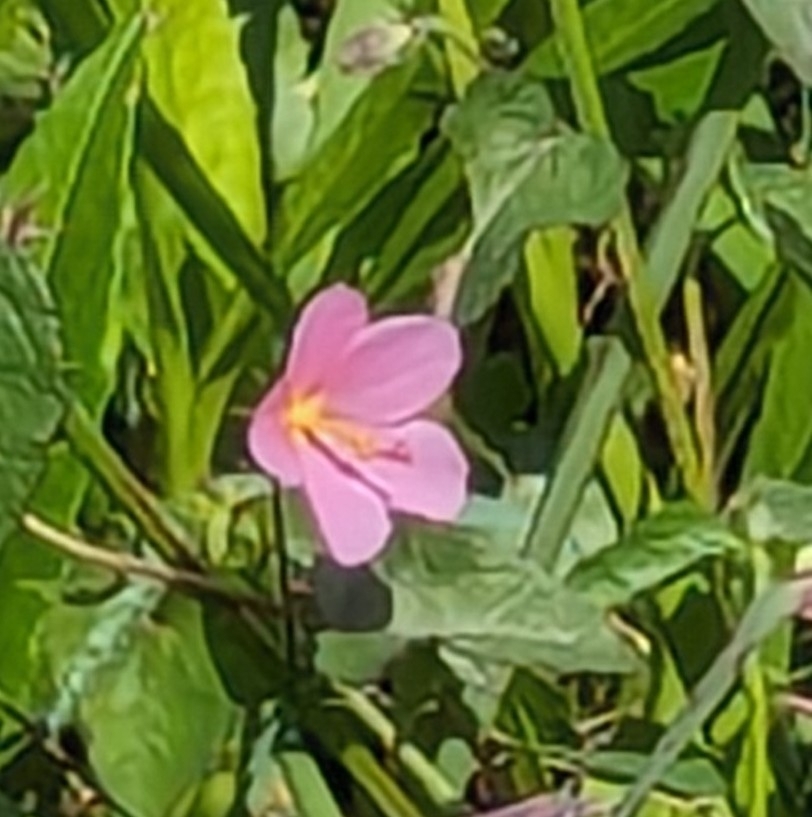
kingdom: Plantae
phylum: Tracheophyta
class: Magnoliopsida
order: Malvales
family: Malvaceae
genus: Kosteletzkya
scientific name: Kosteletzkya pentacarpos
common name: Virginia saltmarsh mallow
